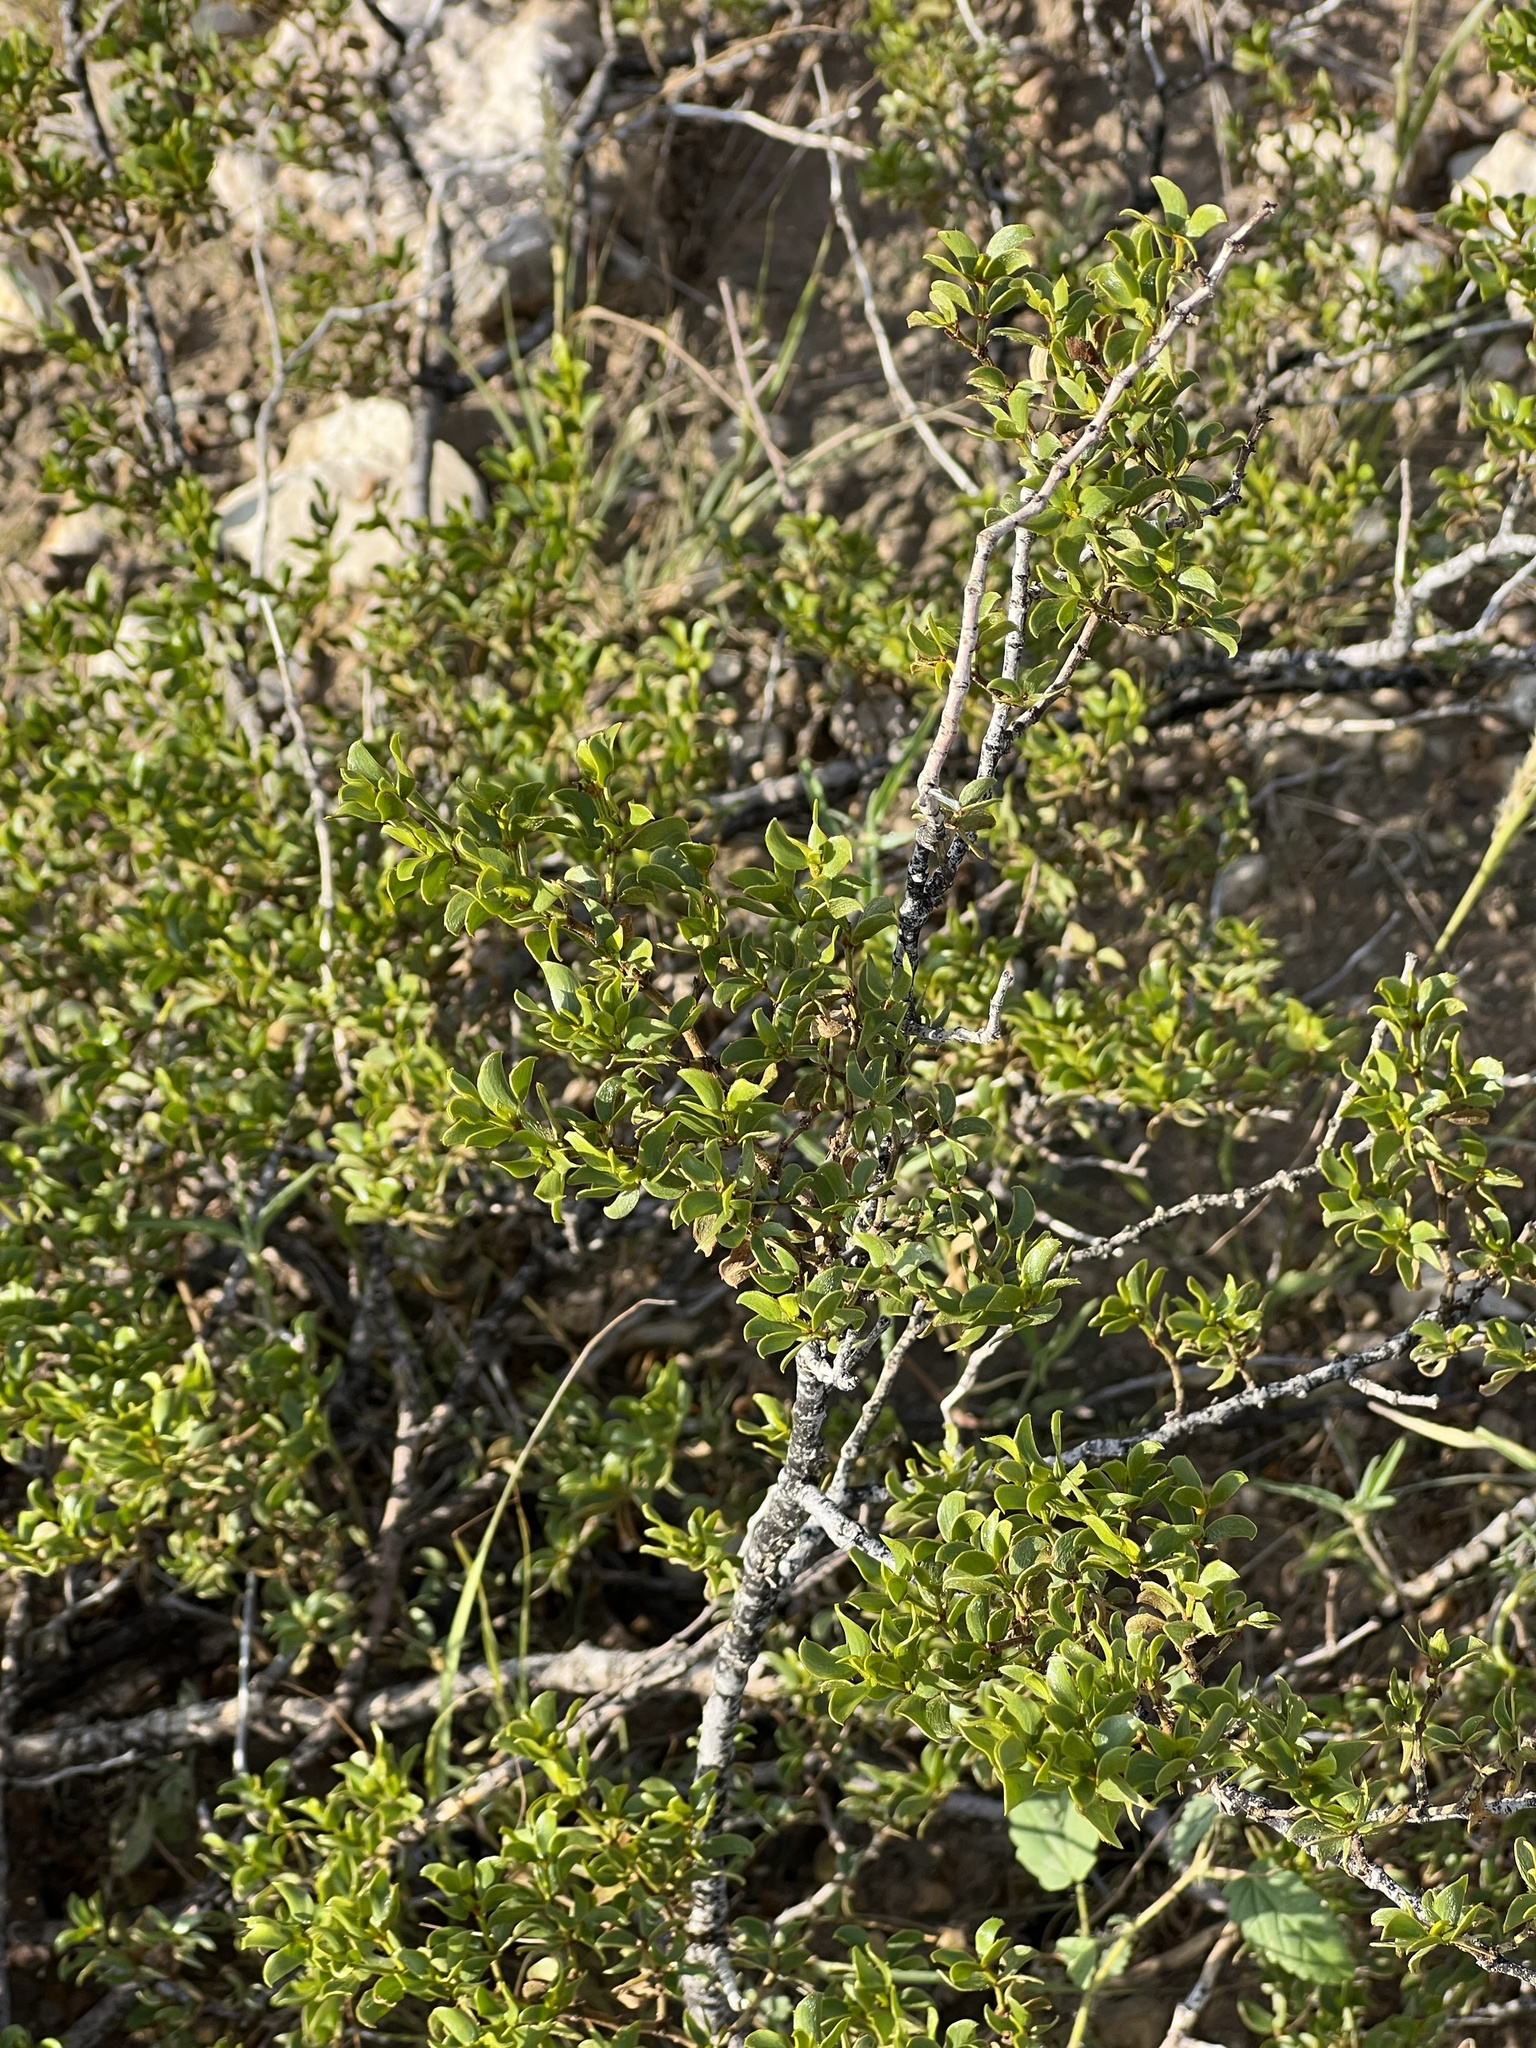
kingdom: Plantae
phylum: Tracheophyta
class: Magnoliopsida
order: Zygophyllales
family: Zygophyllaceae
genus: Larrea
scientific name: Larrea tridentata
